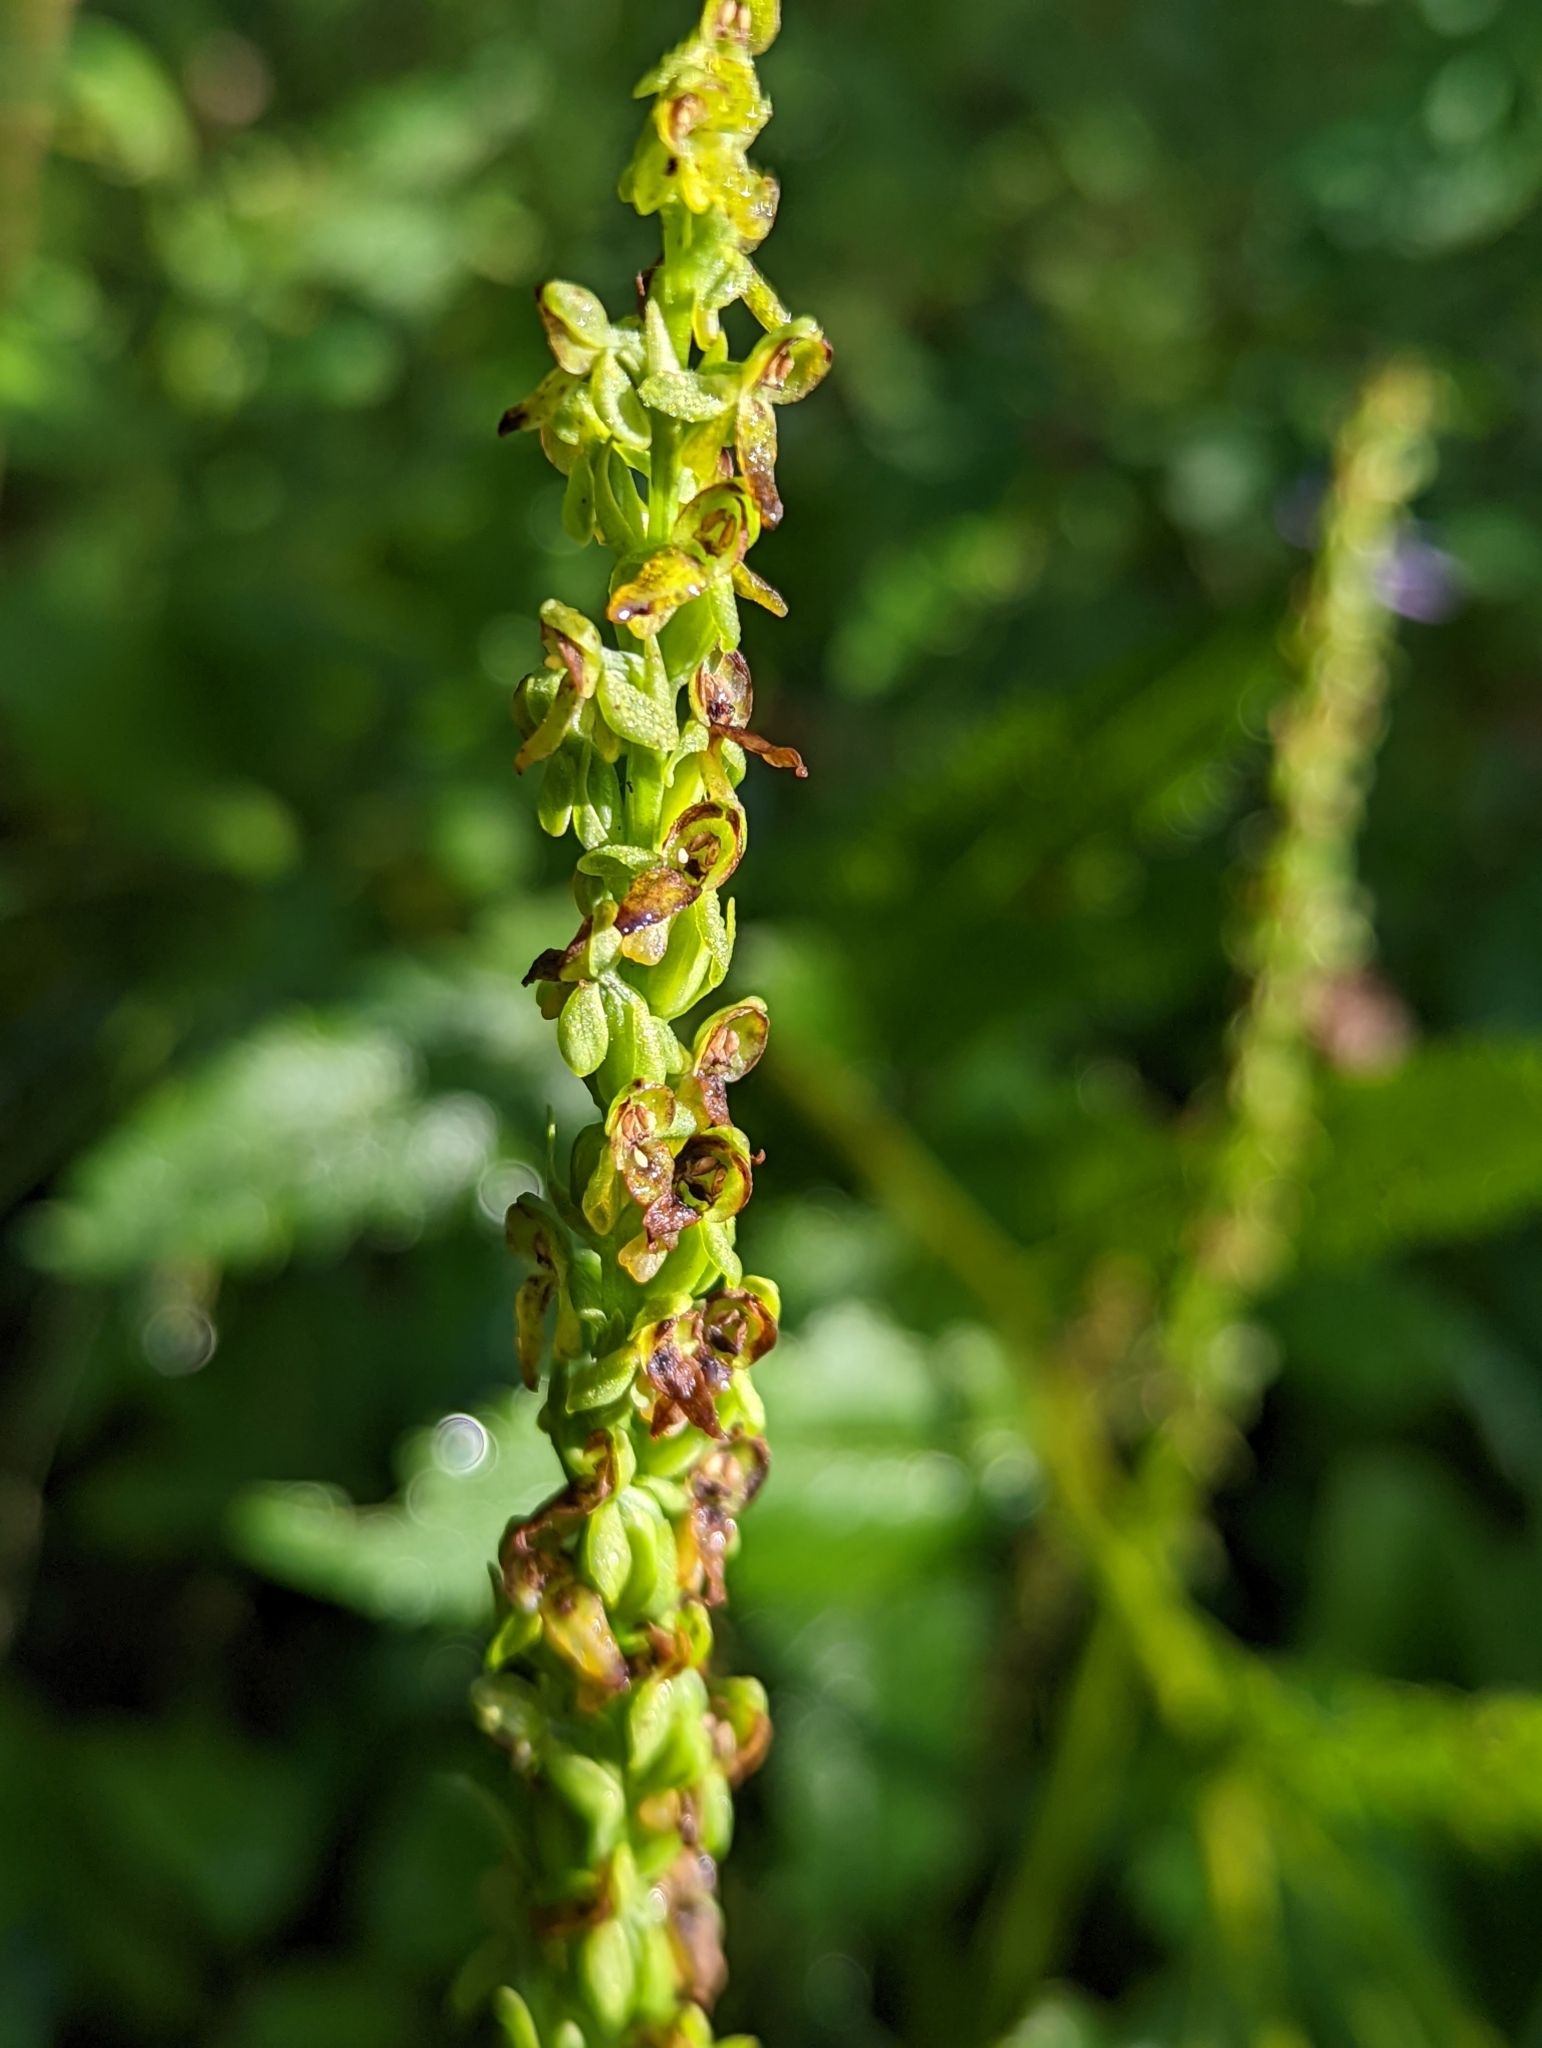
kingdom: Plantae
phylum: Tracheophyta
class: Liliopsida
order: Asparagales
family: Orchidaceae
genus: Platanthera
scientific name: Platanthera purpurascens
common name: Purple-petal bog orchid
